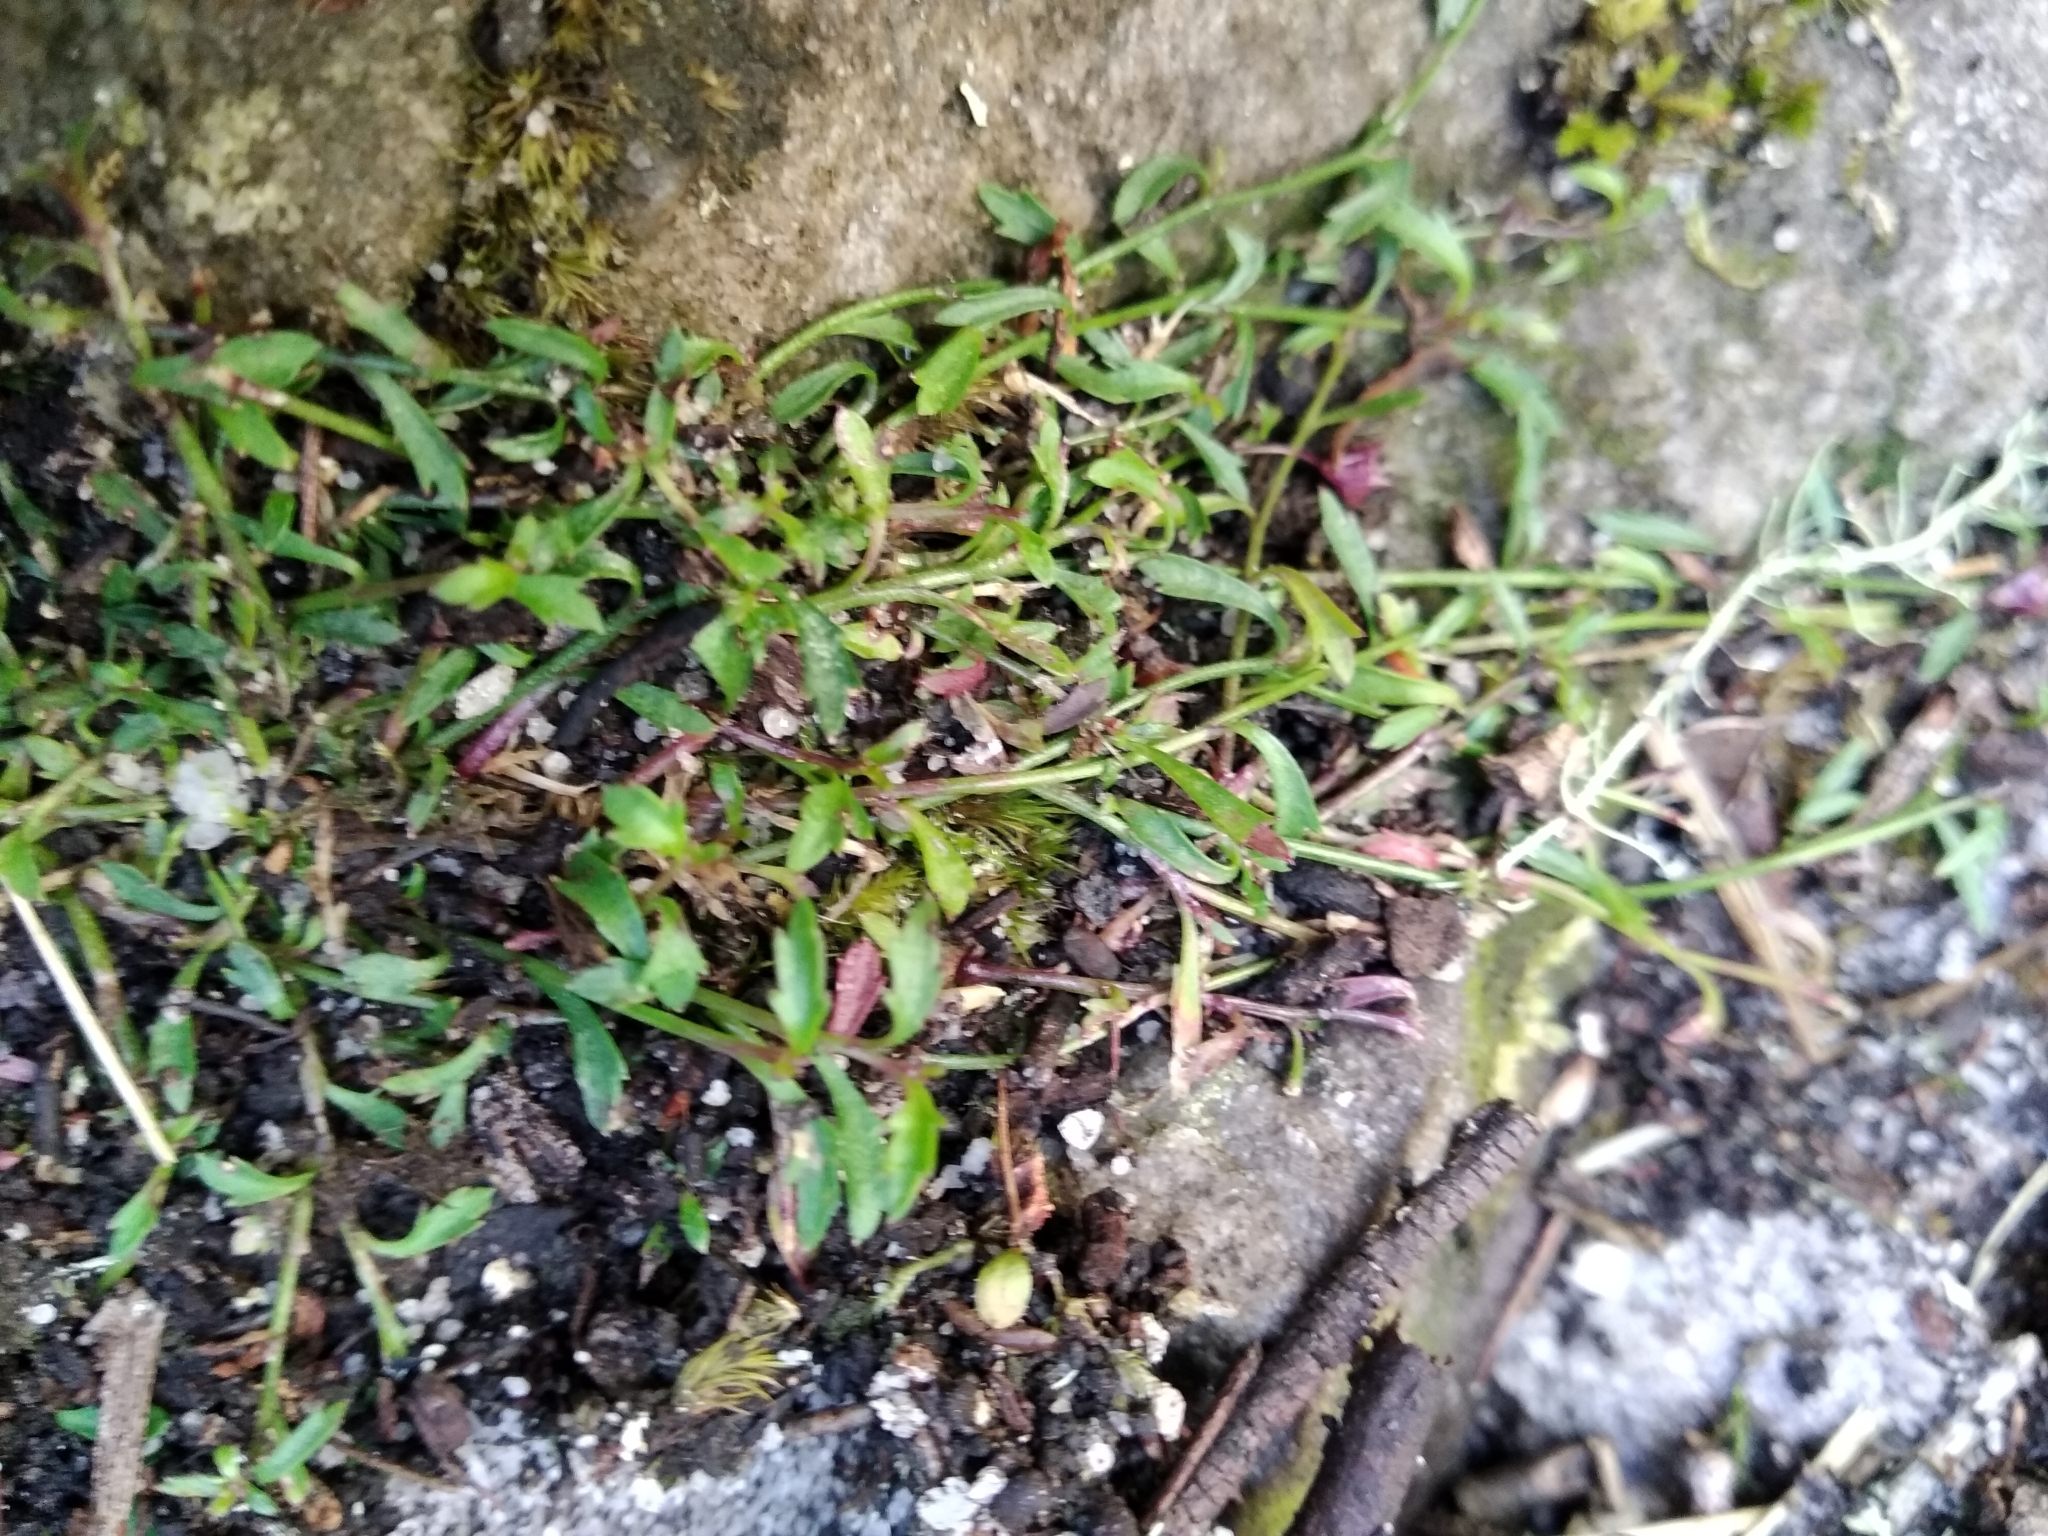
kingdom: Plantae
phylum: Tracheophyta
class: Magnoliopsida
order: Asterales
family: Campanulaceae
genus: Lobelia
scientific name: Lobelia eckloniana
